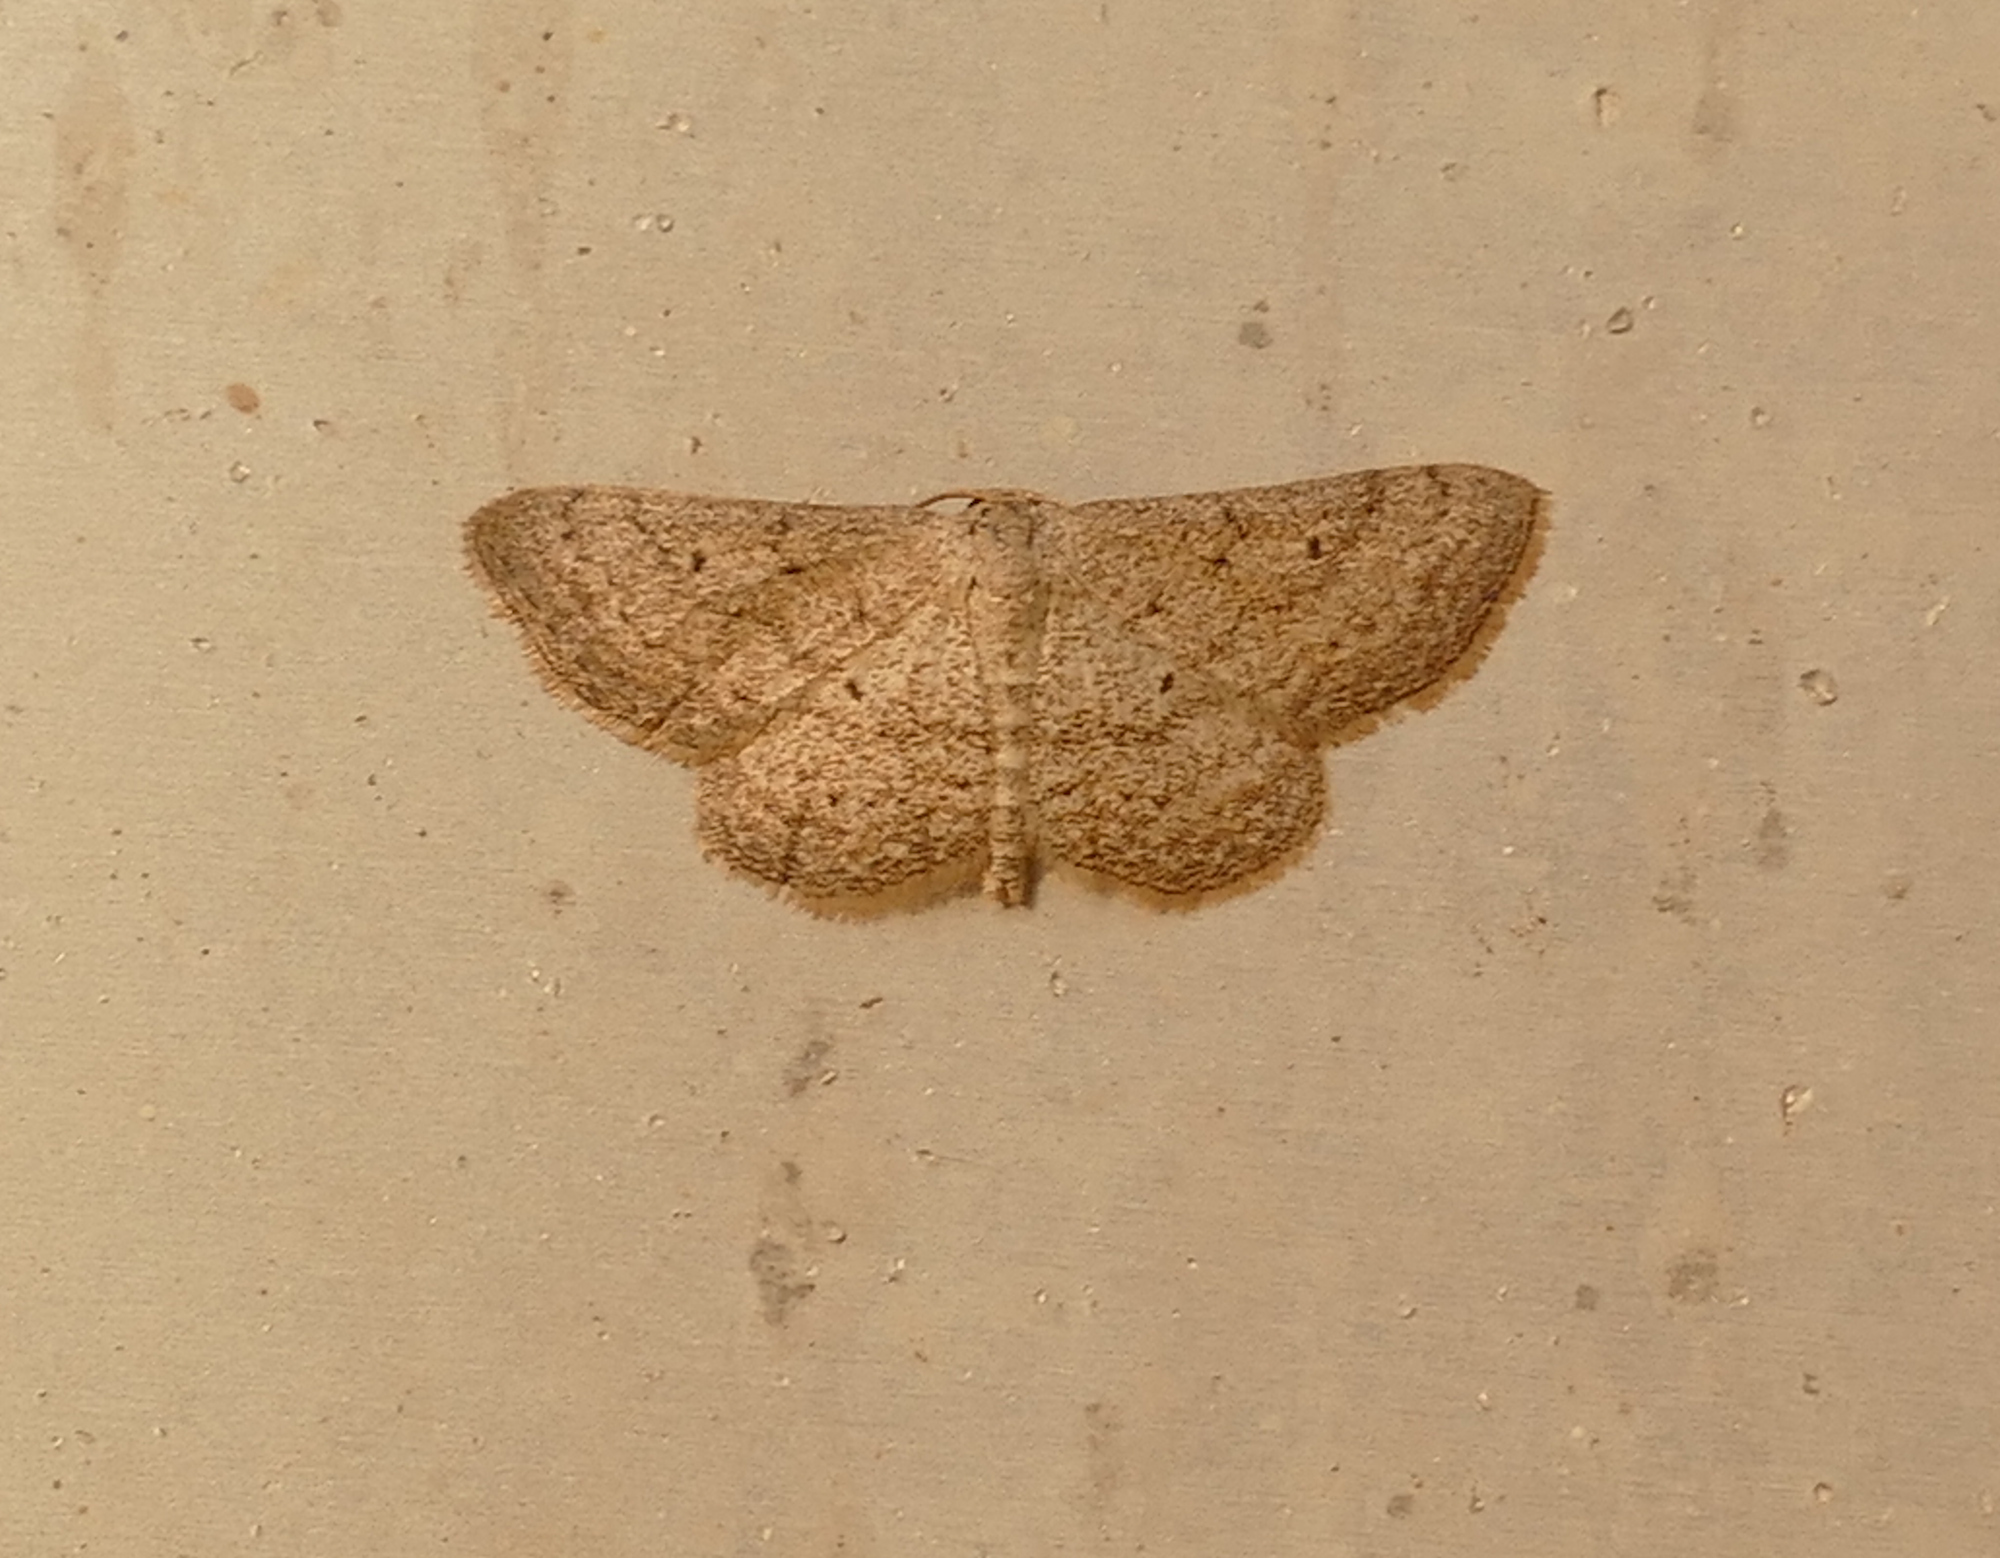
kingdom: Animalia
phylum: Arthropoda
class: Insecta
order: Lepidoptera
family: Geometridae
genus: Lobocleta
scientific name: Lobocleta ossularia
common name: Drab brown wave
